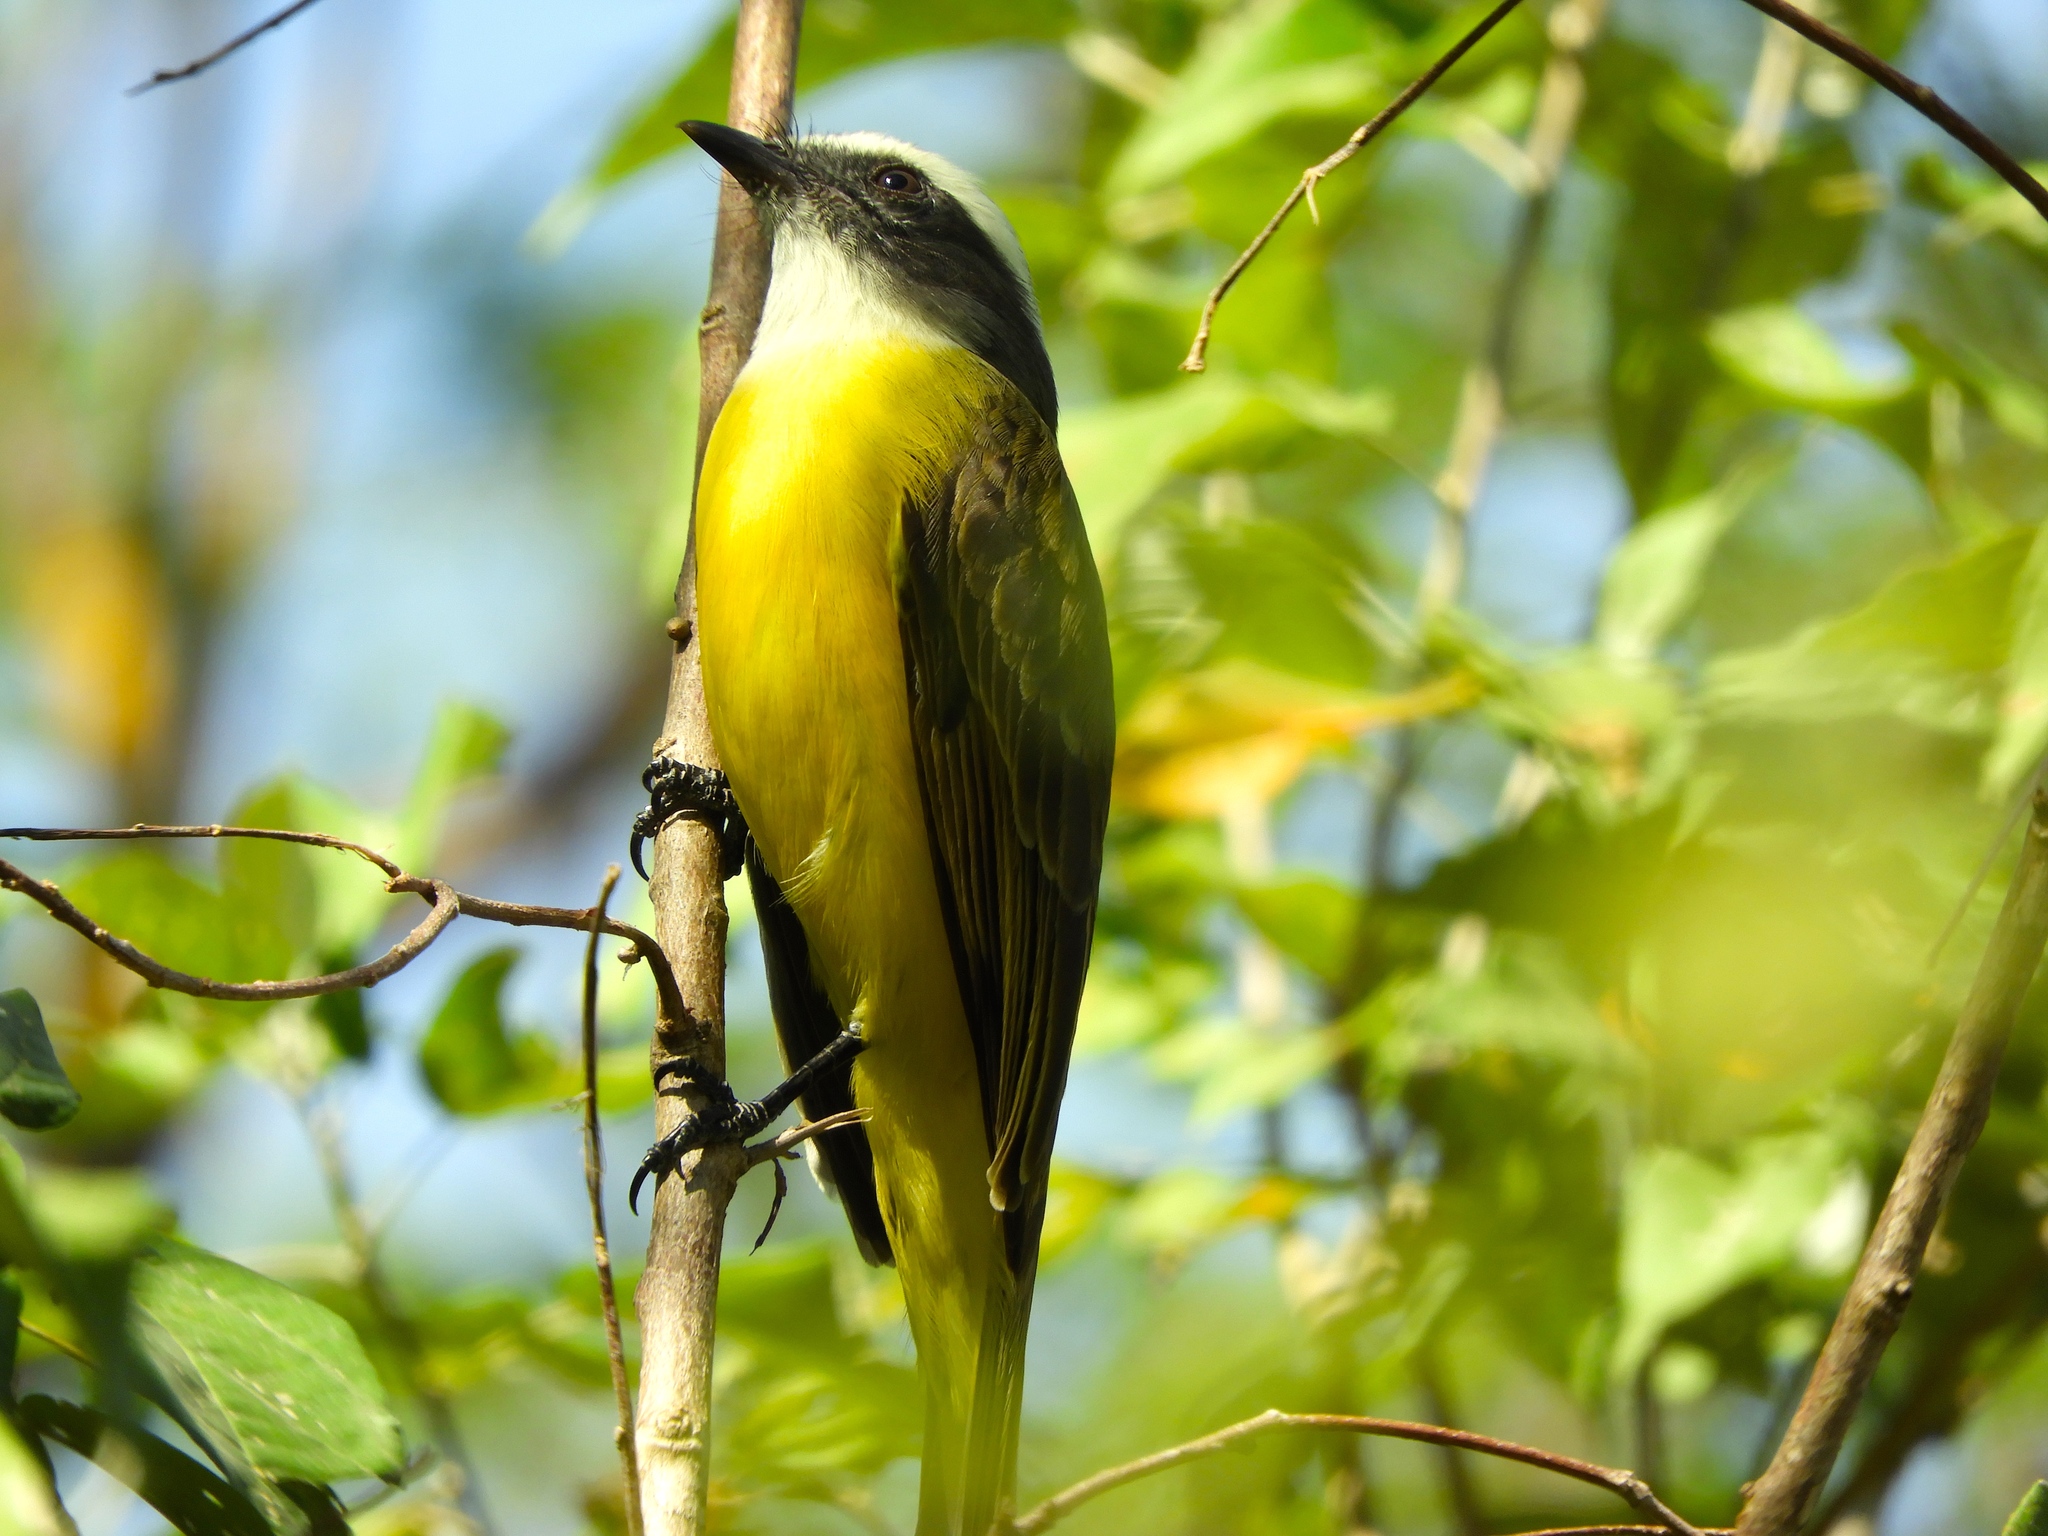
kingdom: Animalia
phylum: Chordata
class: Aves
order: Passeriformes
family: Tyrannidae
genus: Myiozetetes
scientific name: Myiozetetes similis
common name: Social flycatcher
